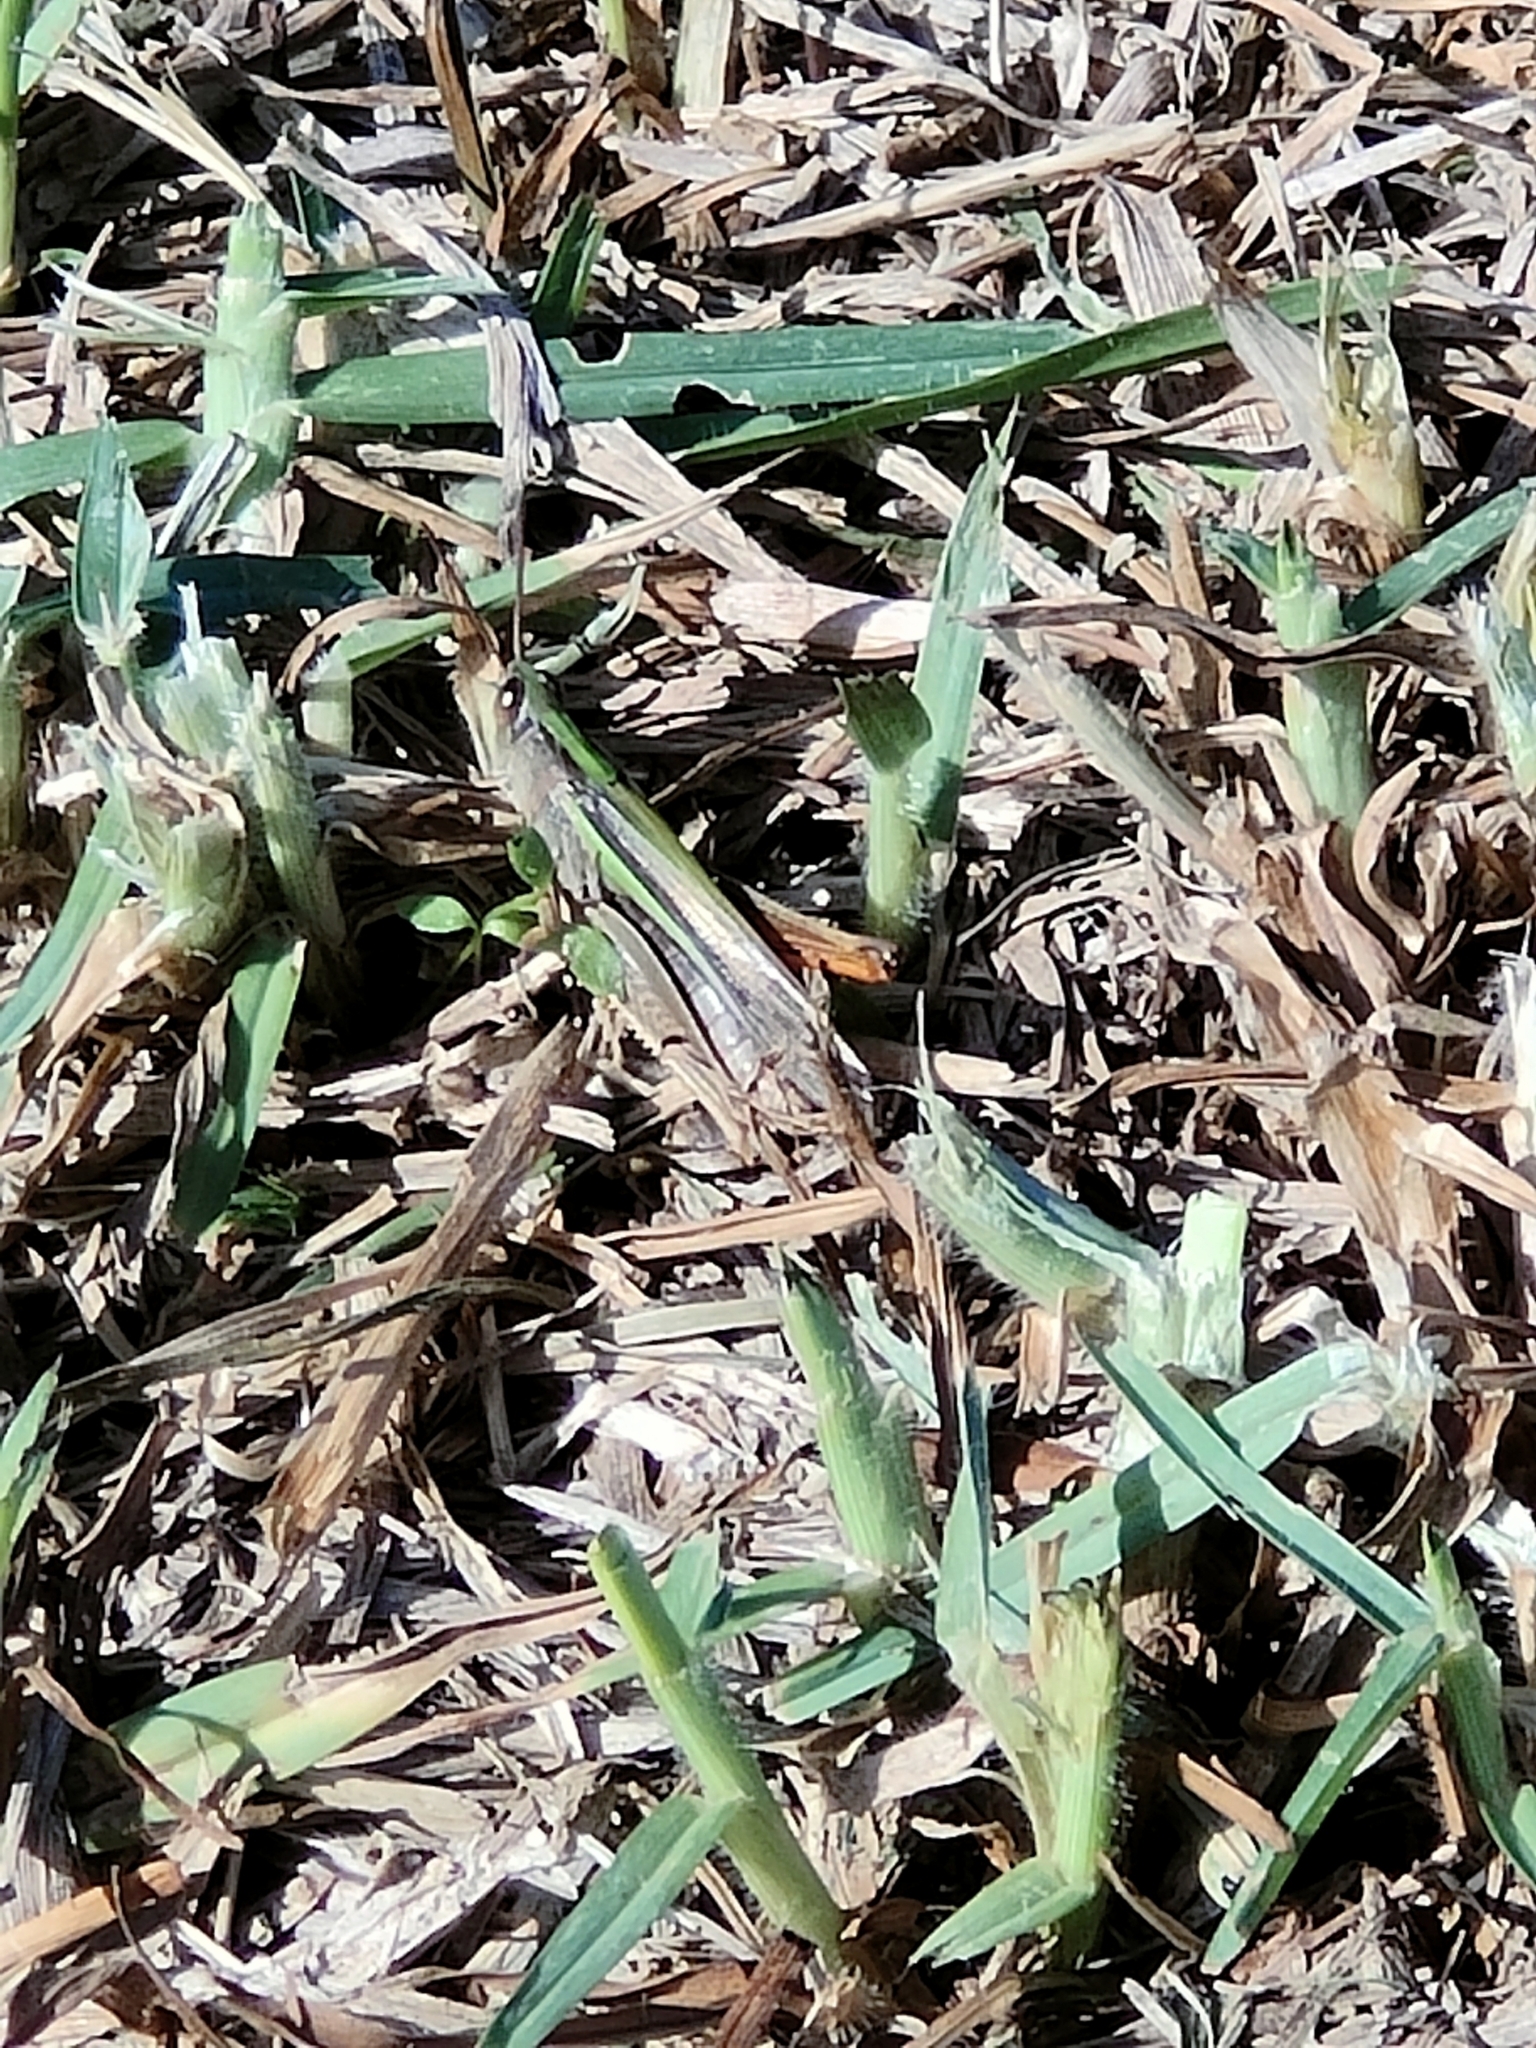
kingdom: Animalia
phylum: Arthropoda
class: Insecta
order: Orthoptera
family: Acrididae
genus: Schizobothrus
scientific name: Schizobothrus flavovittatus
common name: Disappearing grasshopper
